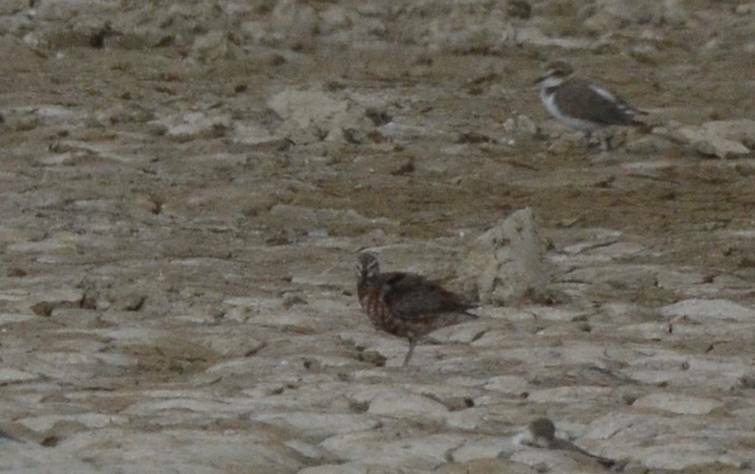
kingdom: Animalia
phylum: Chordata
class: Aves
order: Charadriiformes
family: Scolopacidae
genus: Calidris
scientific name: Calidris ferruginea
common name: Curlew sandpiper
